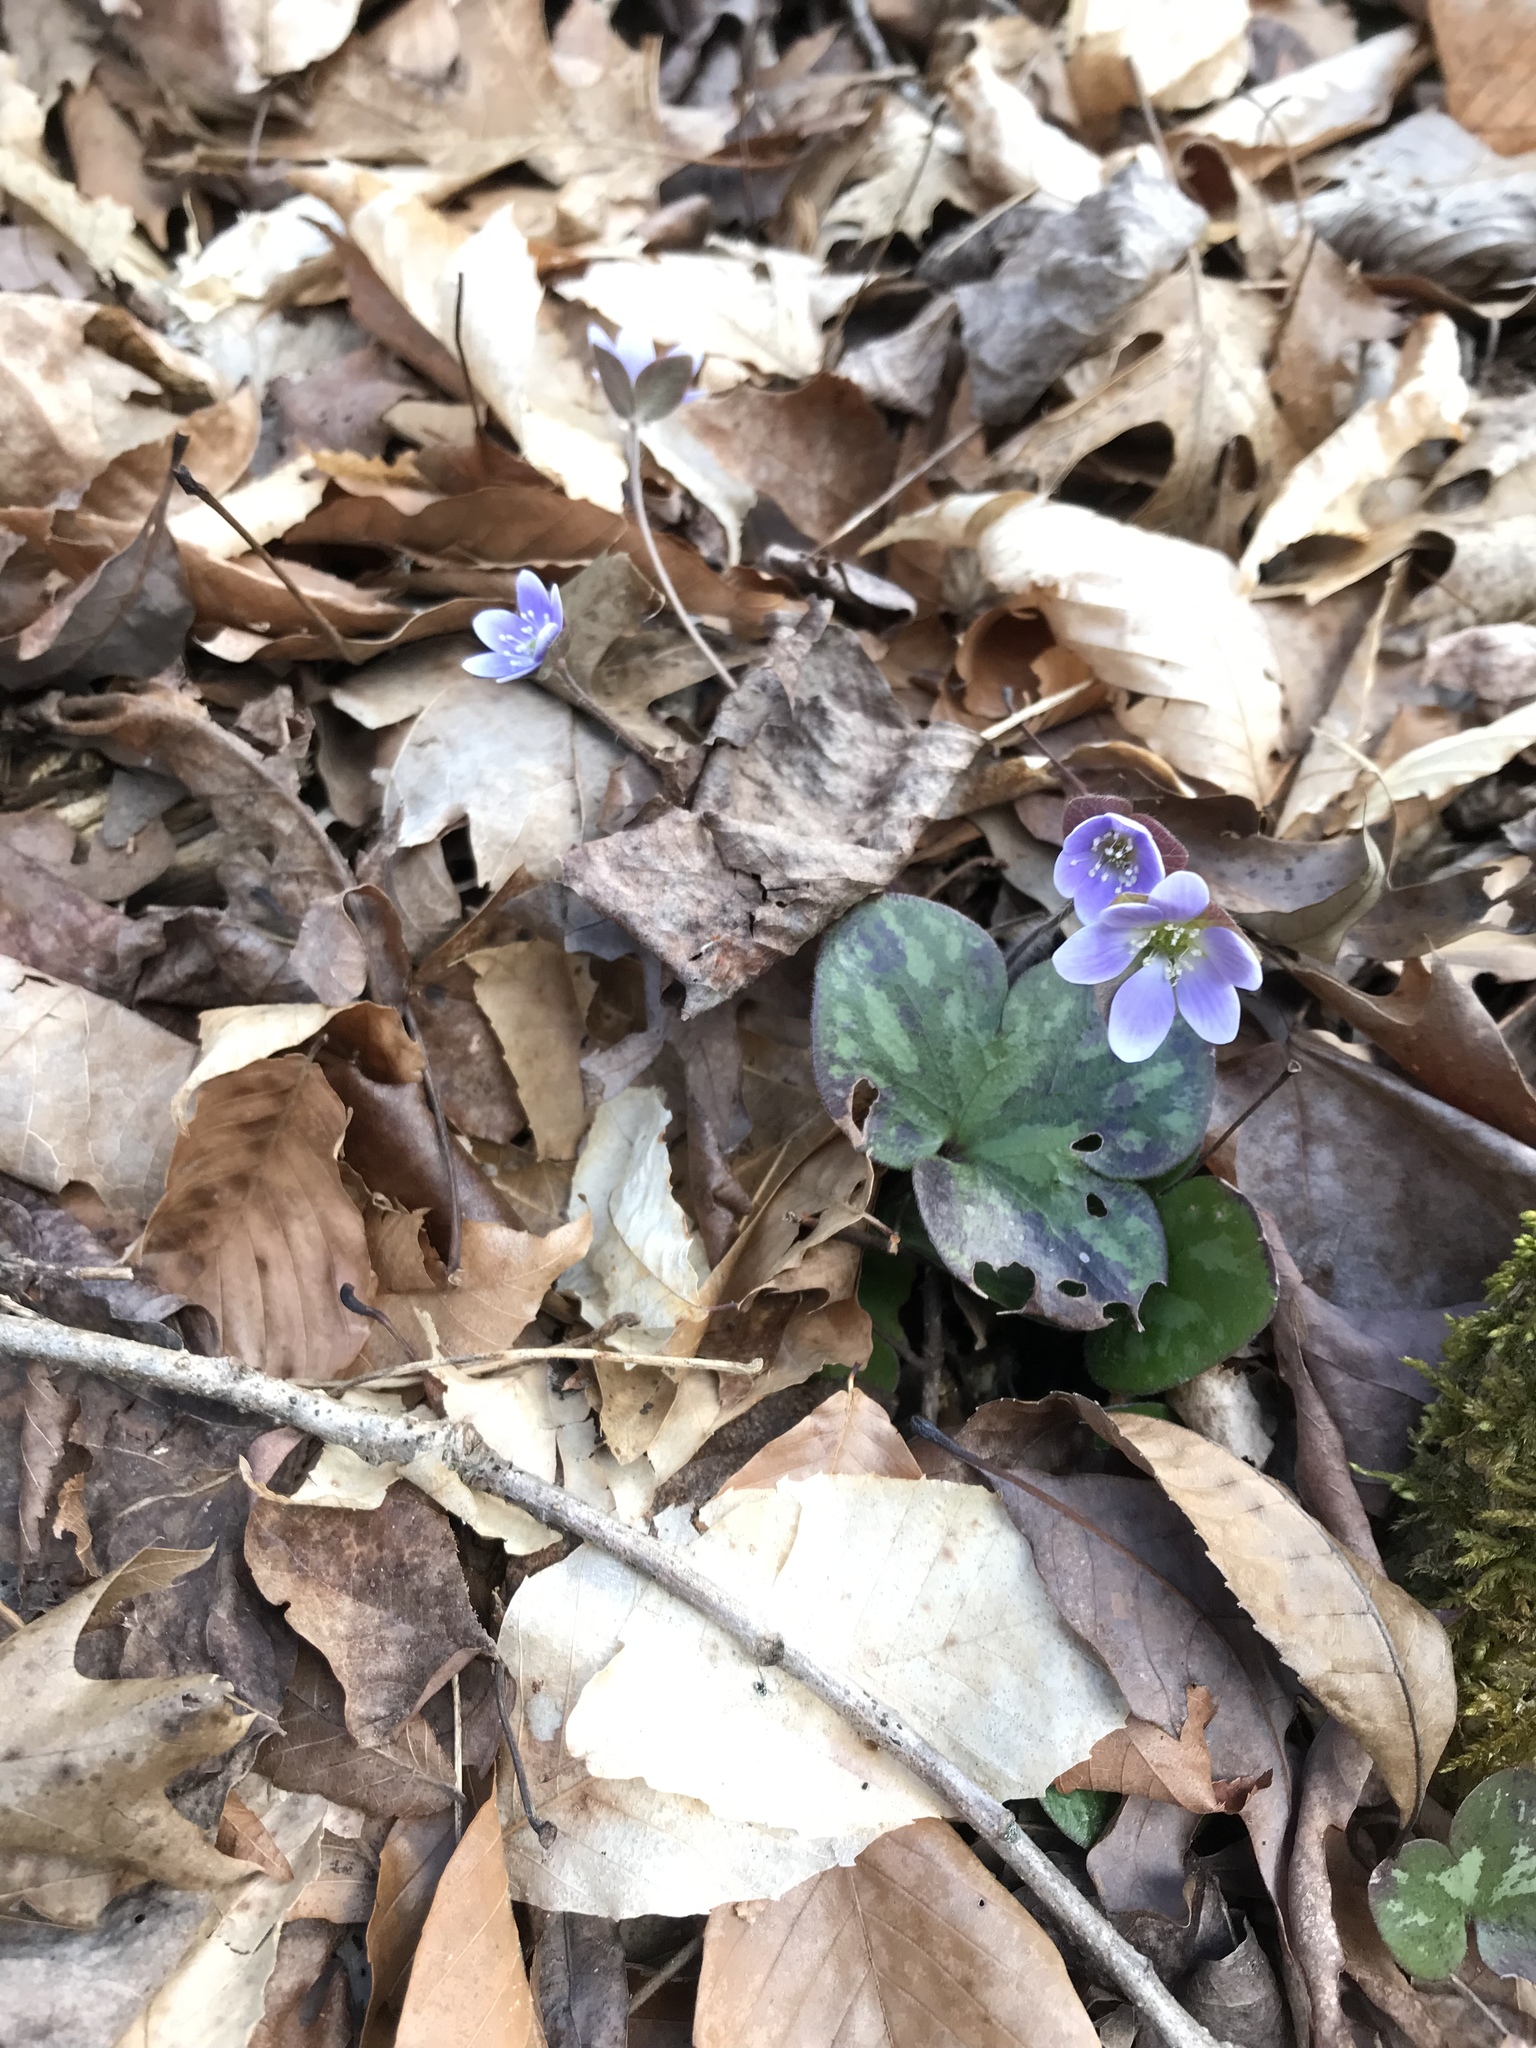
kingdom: Plantae
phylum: Tracheophyta
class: Magnoliopsida
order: Ranunculales
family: Ranunculaceae
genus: Hepatica
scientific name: Hepatica americana
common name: American hepatica
